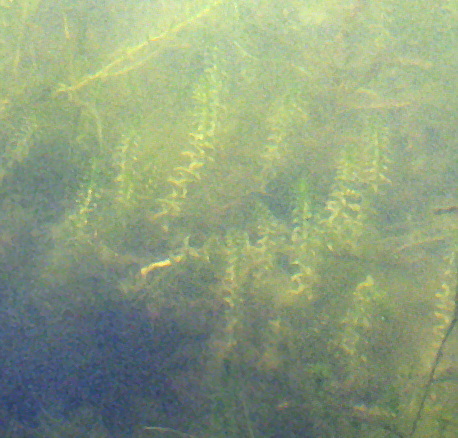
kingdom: Plantae
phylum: Tracheophyta
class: Liliopsida
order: Alismatales
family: Hydrocharitaceae
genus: Elodea
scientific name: Elodea canadensis
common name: Canadian waterweed
